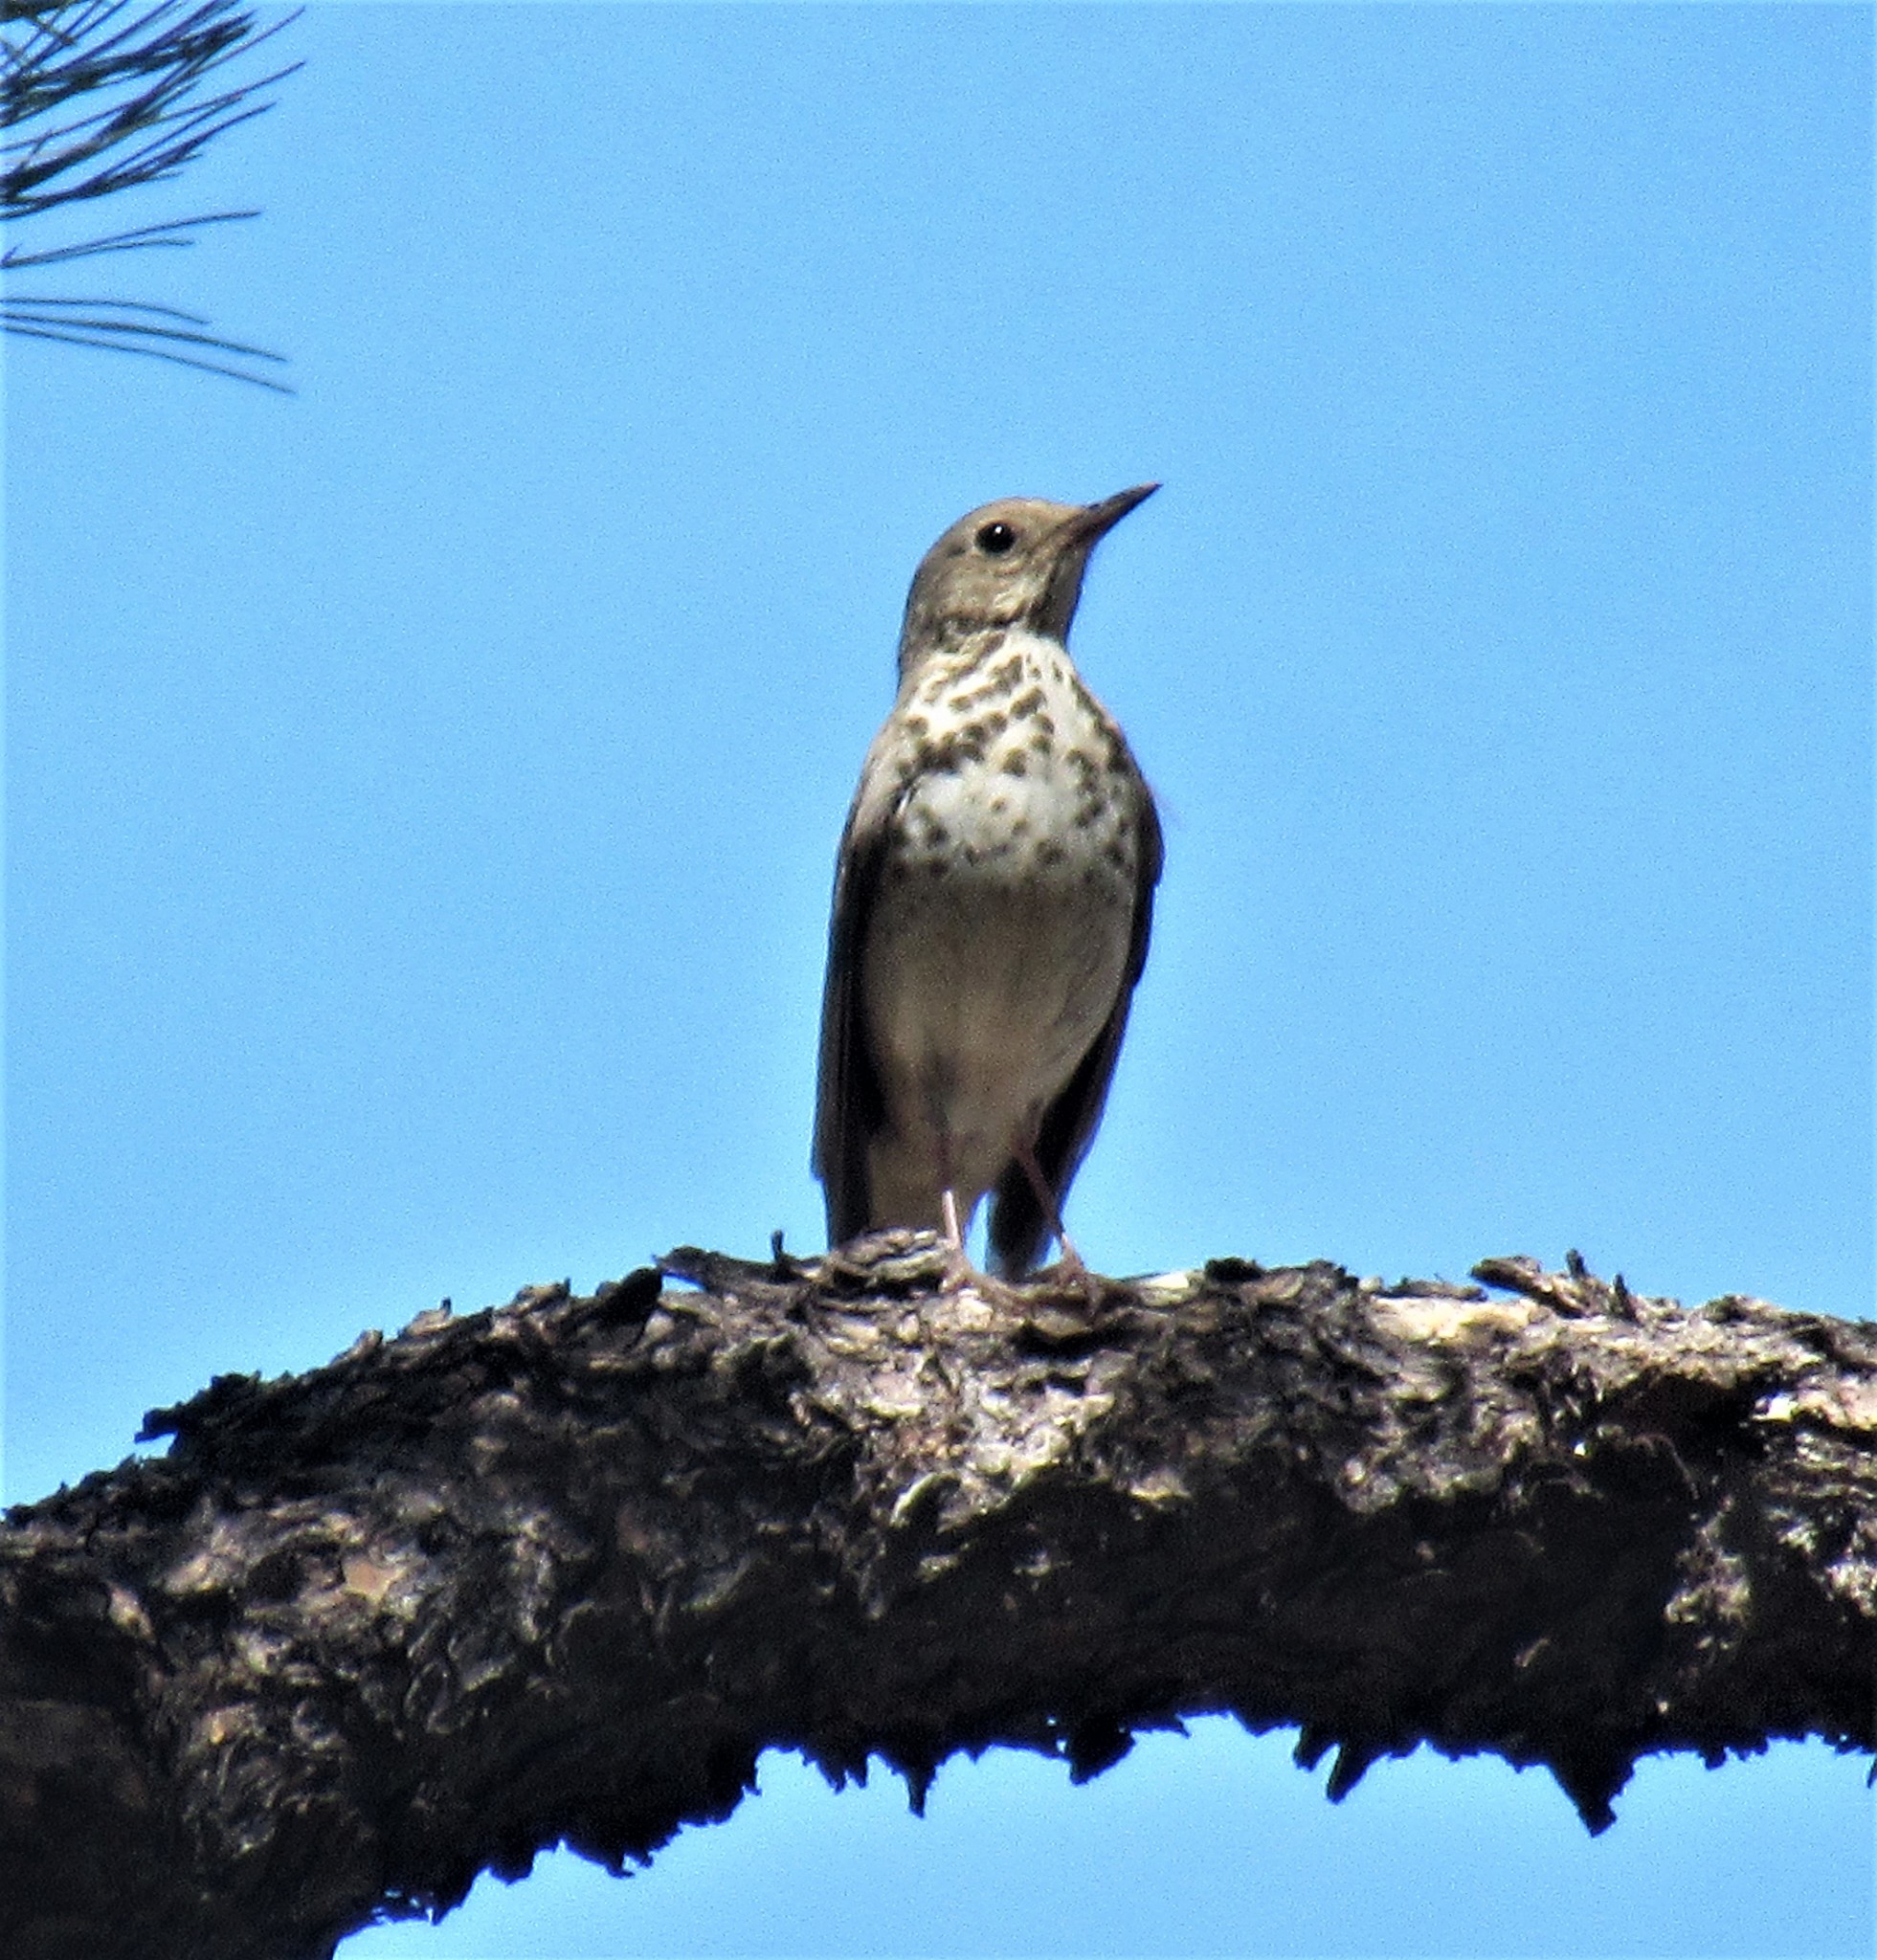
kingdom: Animalia
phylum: Chordata
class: Aves
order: Passeriformes
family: Turdidae
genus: Catharus
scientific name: Catharus guttatus
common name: Hermit thrush
